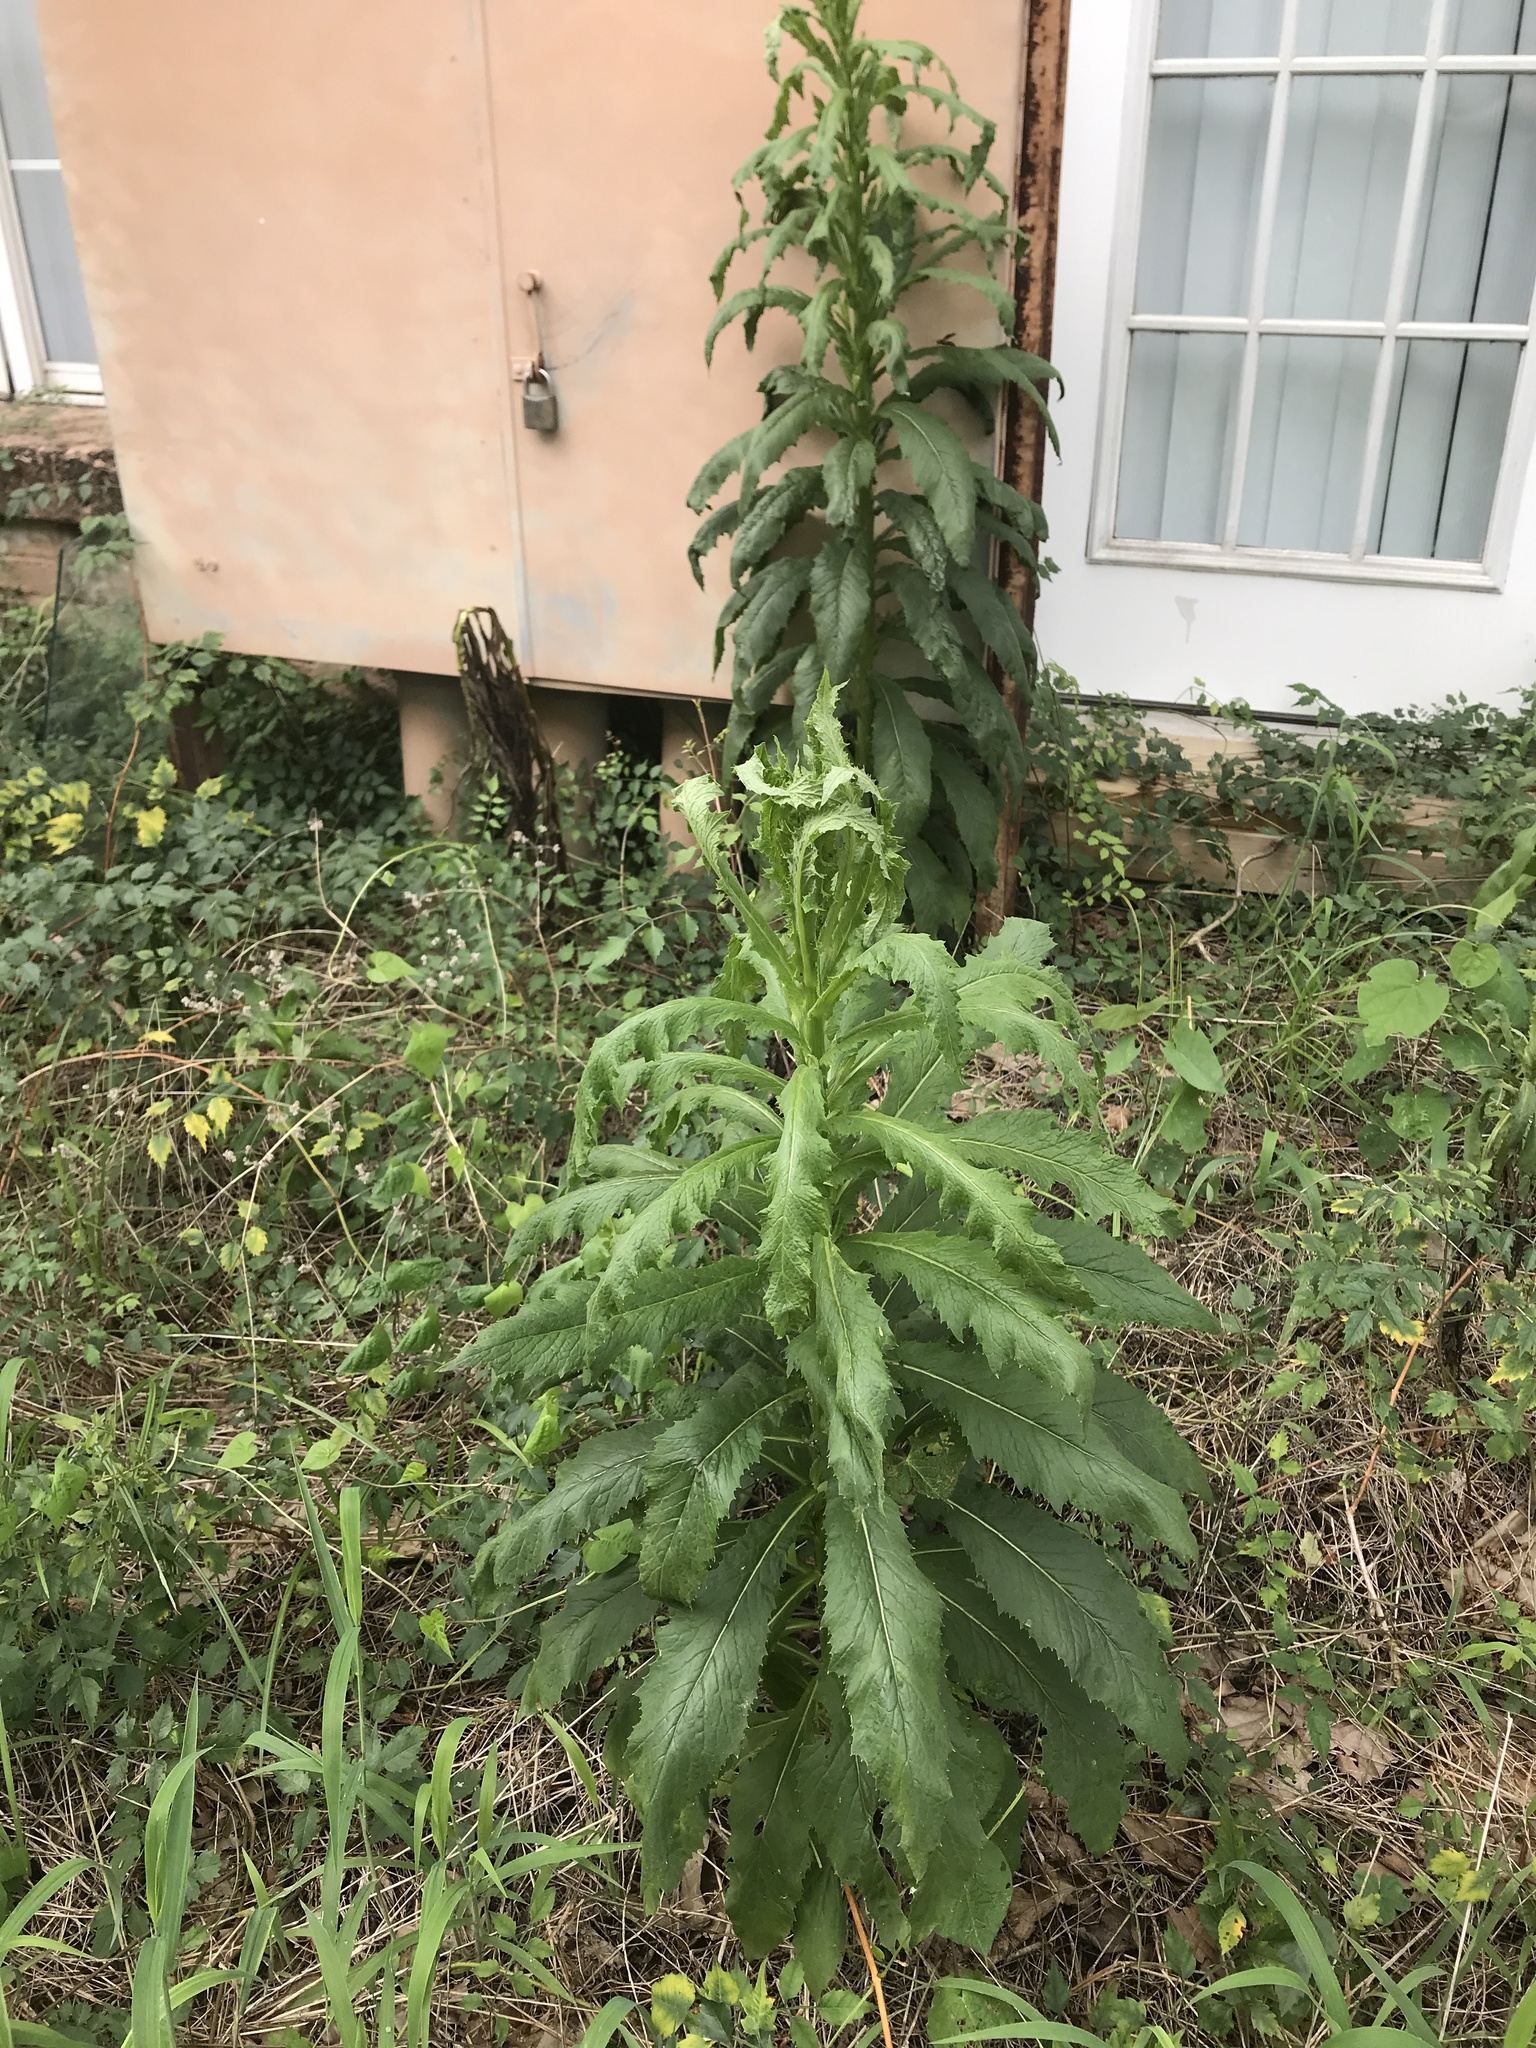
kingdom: Plantae
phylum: Tracheophyta
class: Magnoliopsida
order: Asterales
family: Asteraceae
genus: Erechtites
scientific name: Erechtites hieraciifolius
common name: American burnweed
